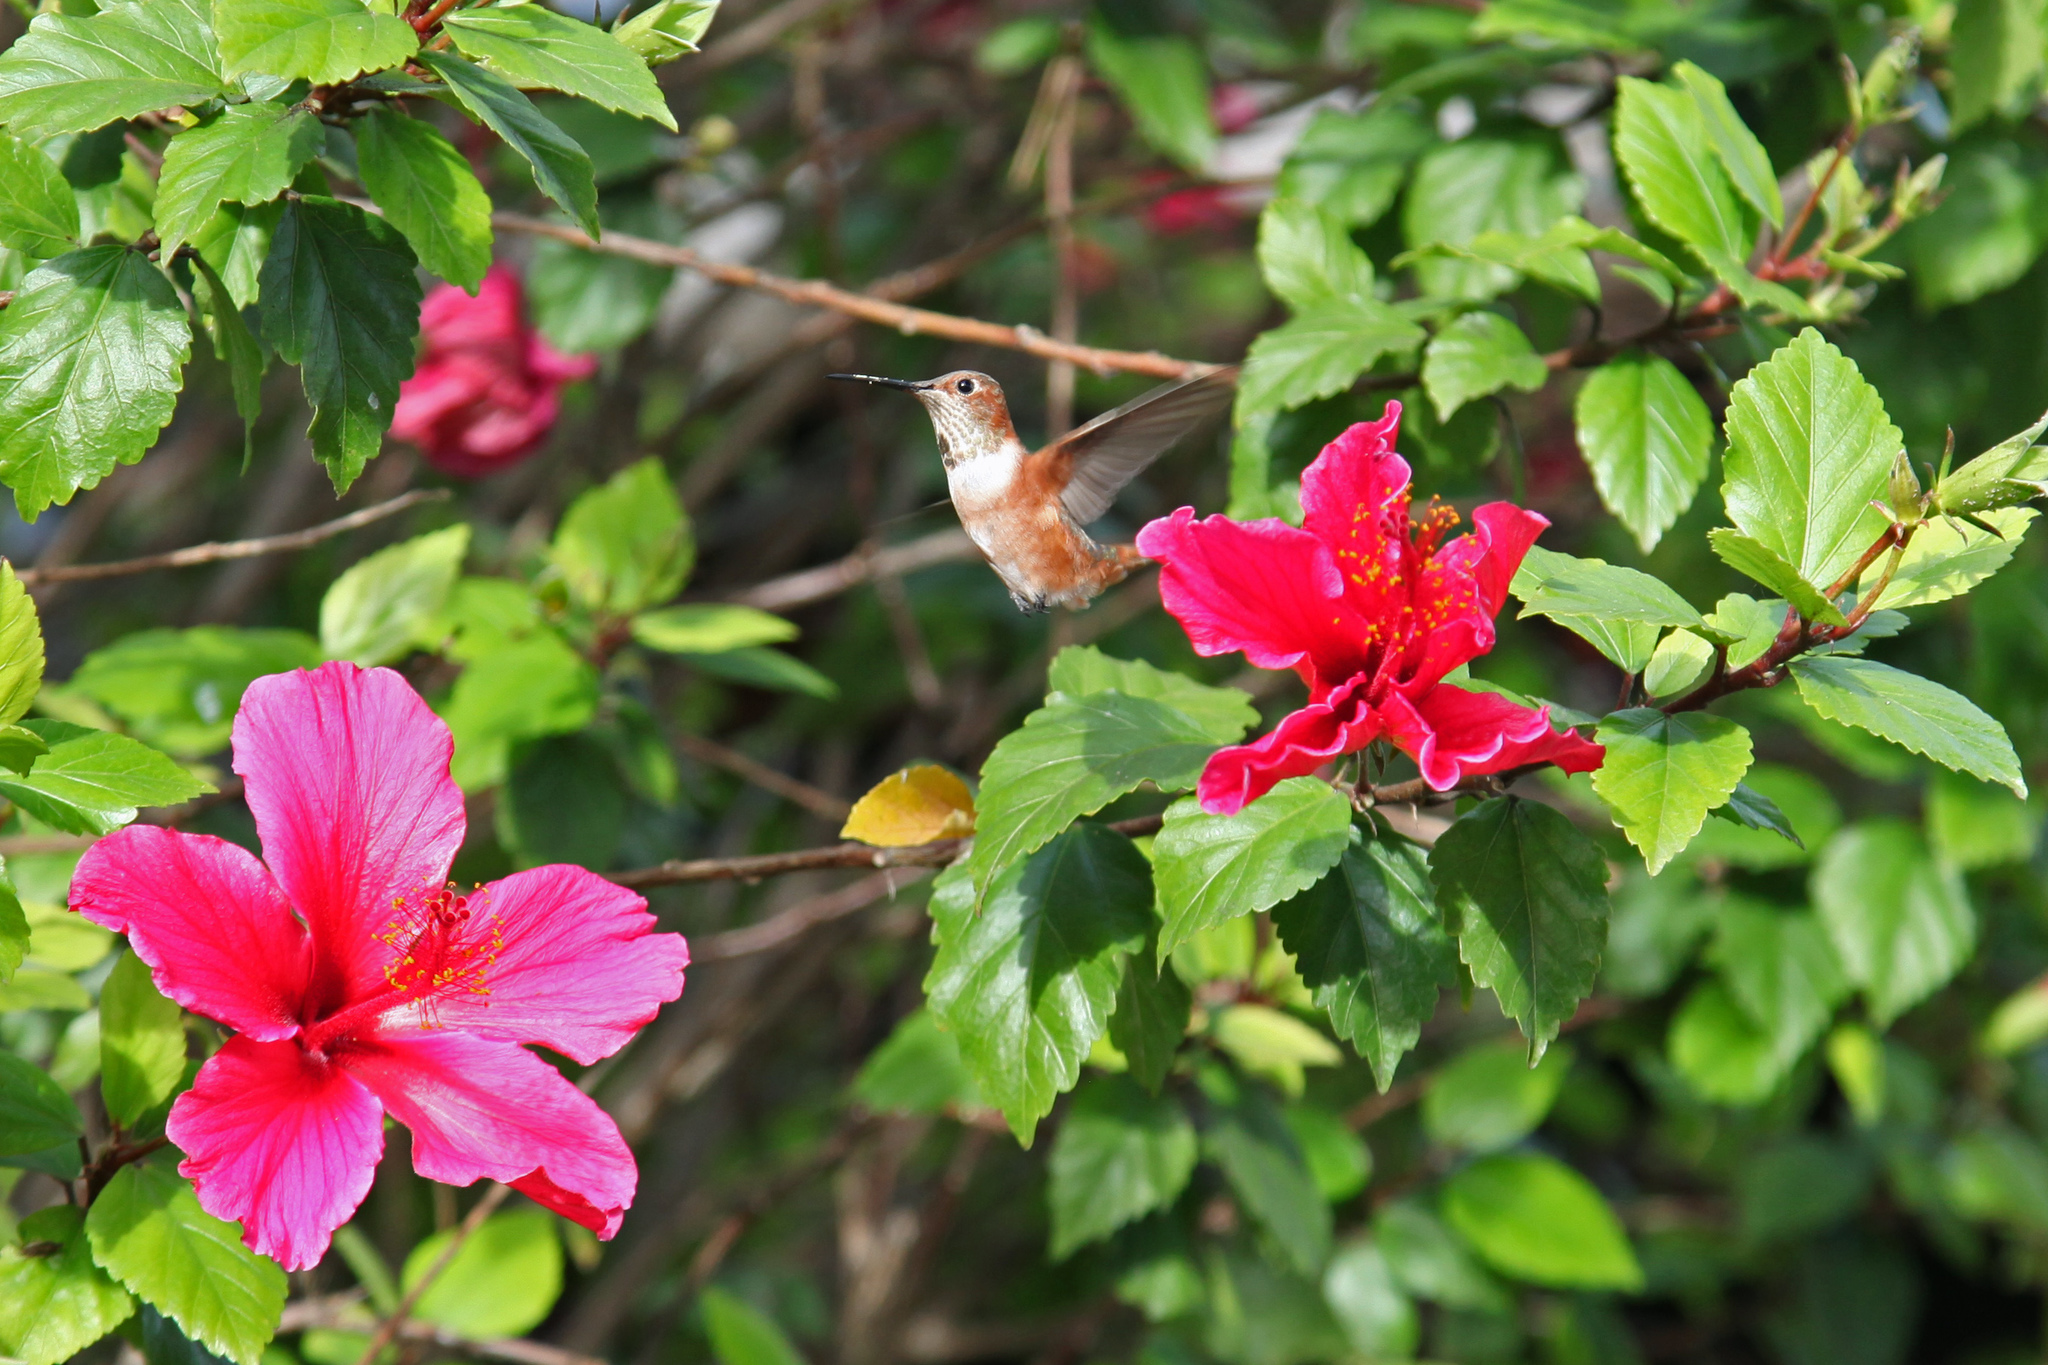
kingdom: Animalia
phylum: Chordata
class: Aves
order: Apodiformes
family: Trochilidae
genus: Selasphorus
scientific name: Selasphorus
